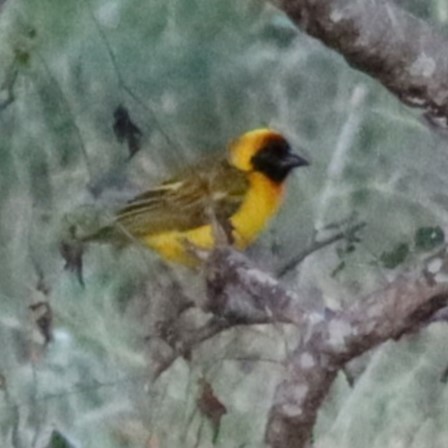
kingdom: Animalia
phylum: Chordata
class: Aves
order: Passeriformes
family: Ploceidae
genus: Ploceus
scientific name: Ploceus vitellinus
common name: Vitelline masked weaver
